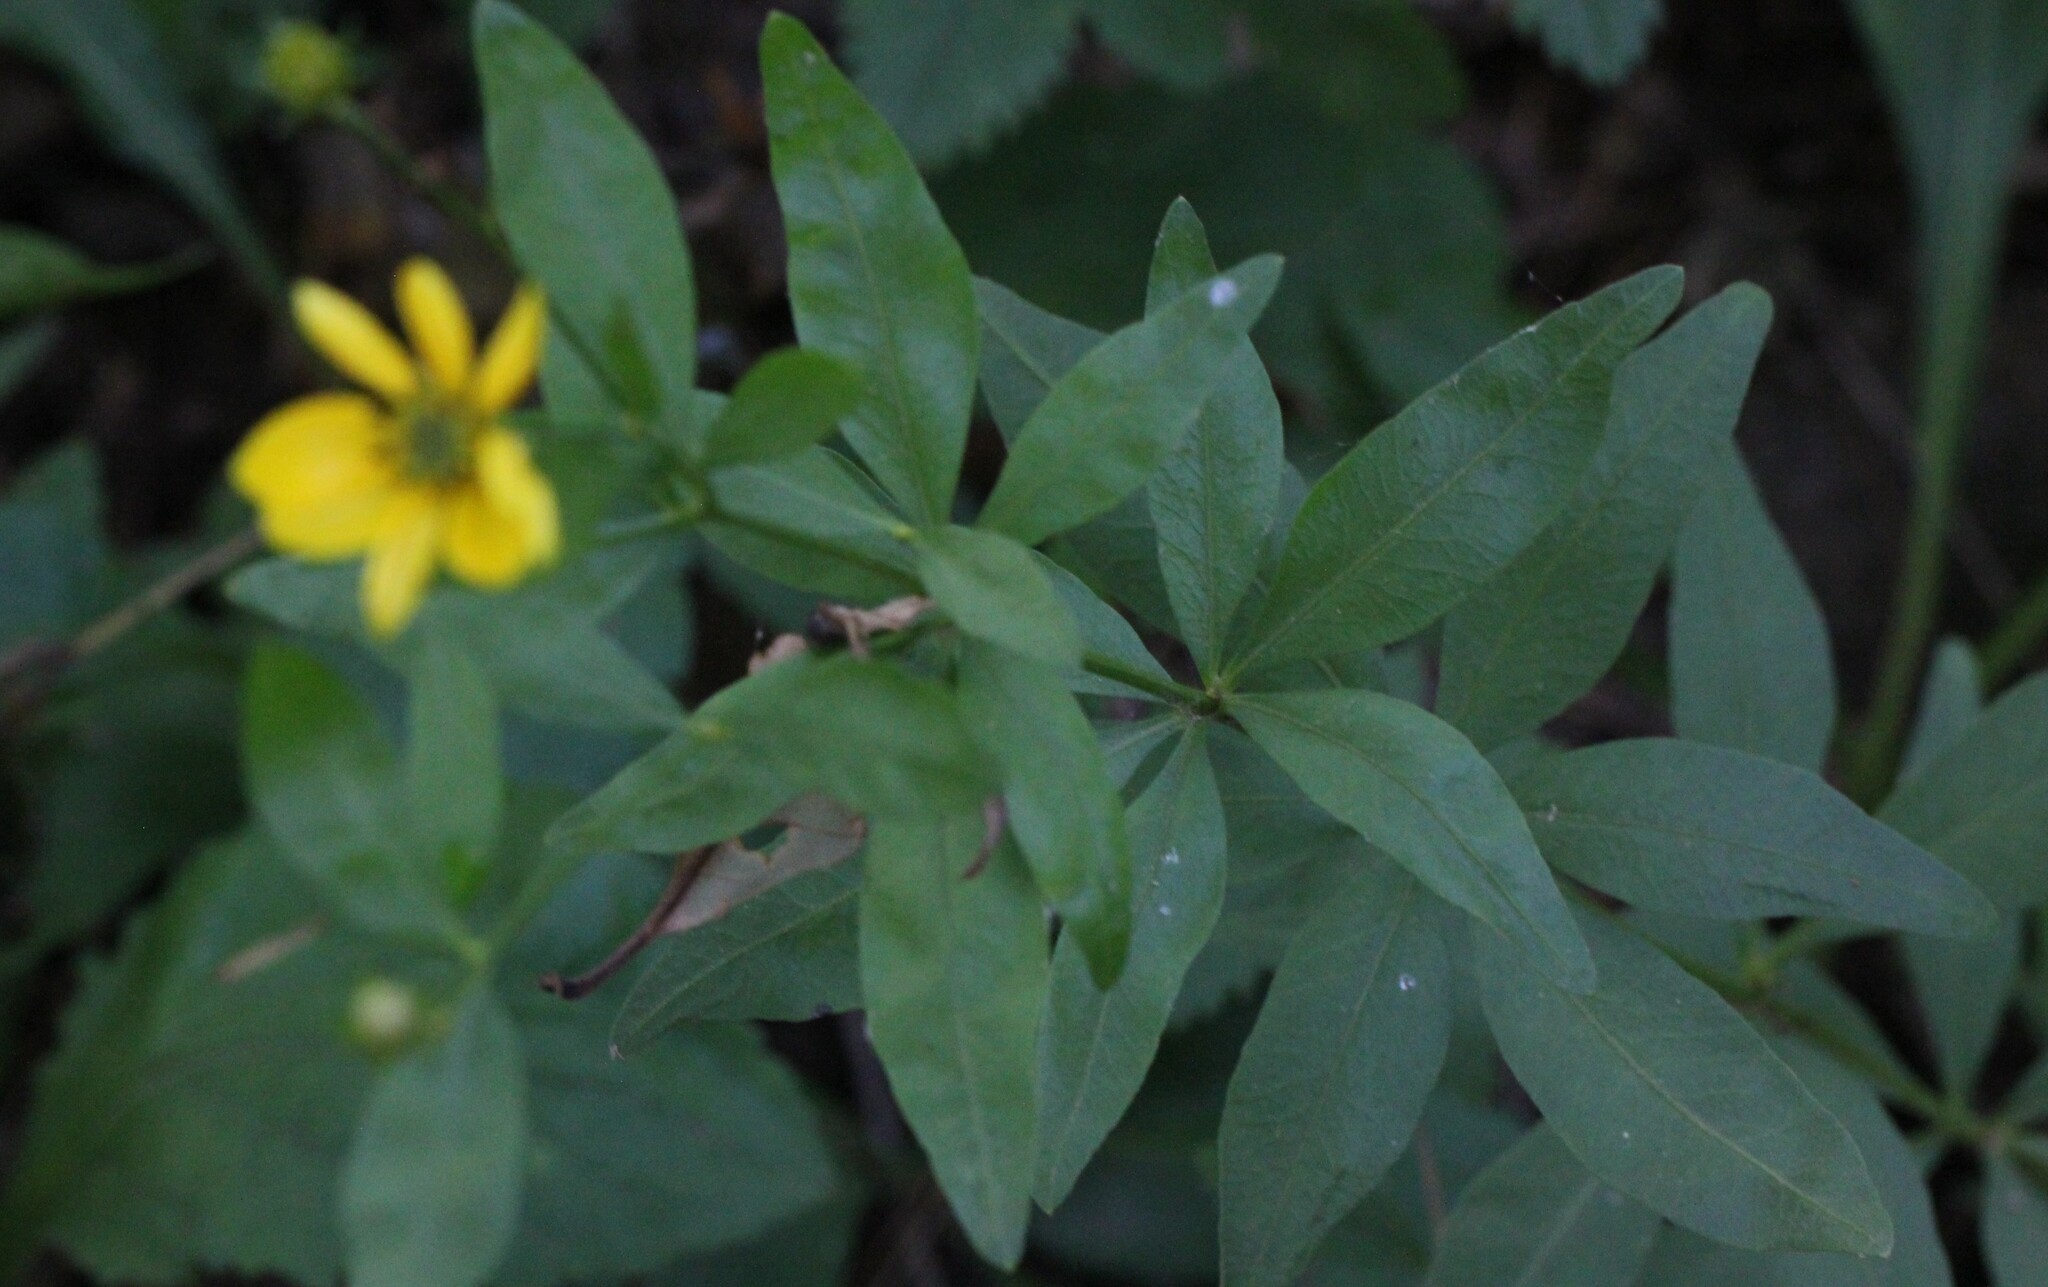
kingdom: Plantae
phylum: Tracheophyta
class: Magnoliopsida
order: Asterales
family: Asteraceae
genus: Coreopsis
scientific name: Coreopsis major
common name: Forest tickseed
